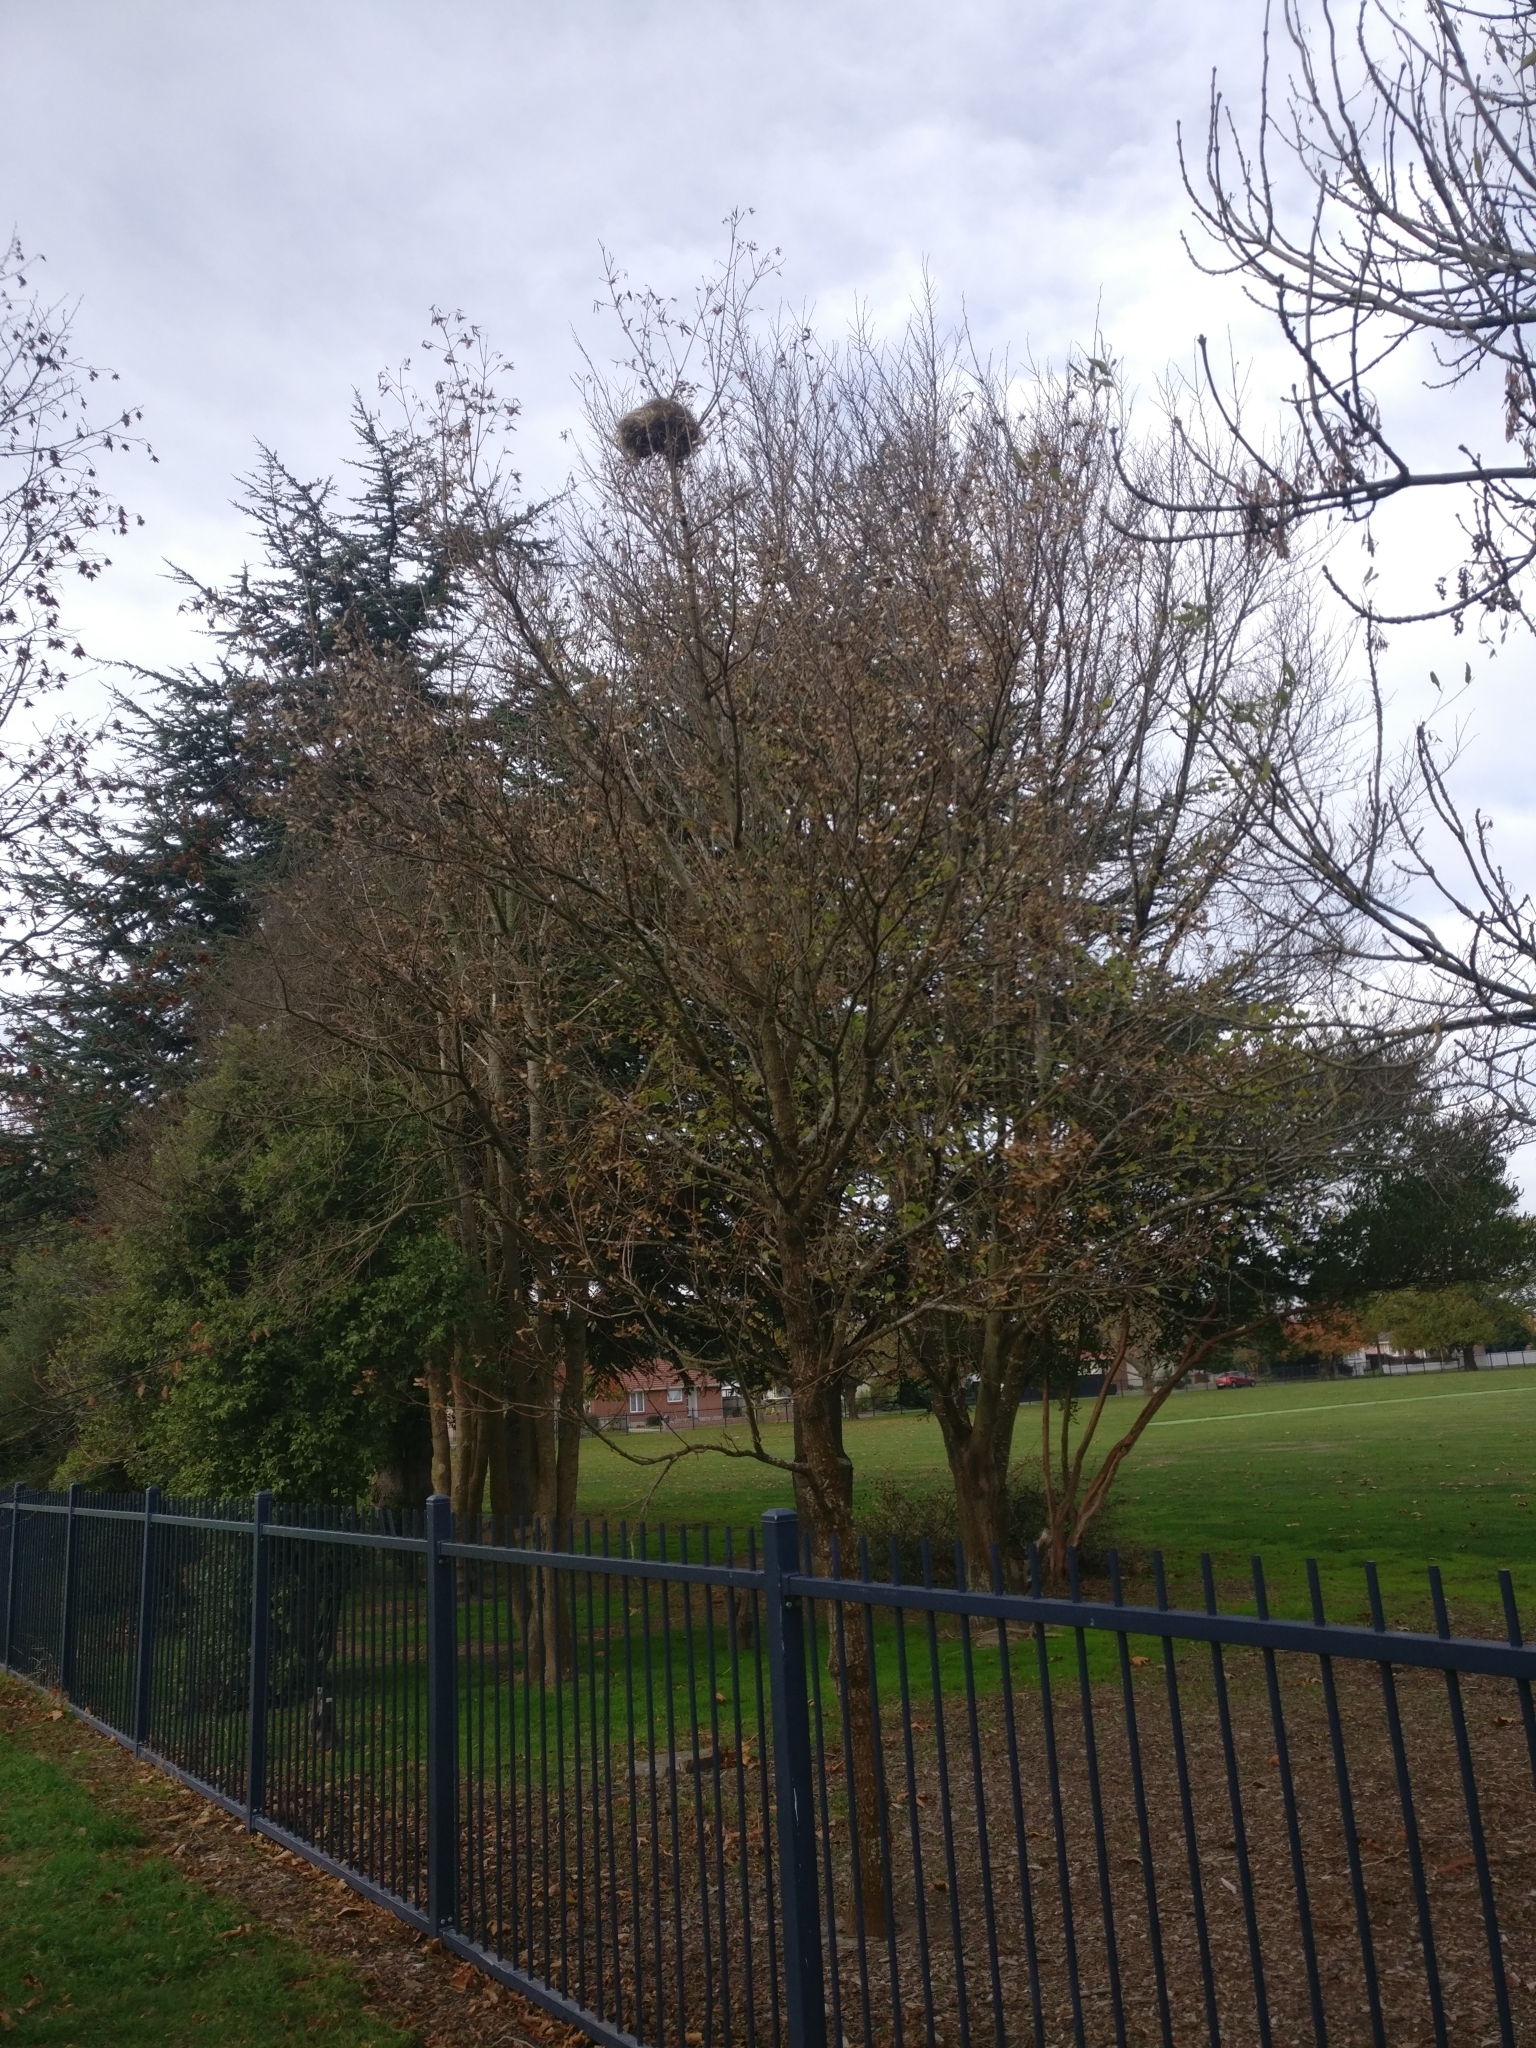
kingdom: Animalia
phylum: Chordata
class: Aves
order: Passeriformes
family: Passeridae
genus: Passer
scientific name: Passer domesticus
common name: House sparrow
